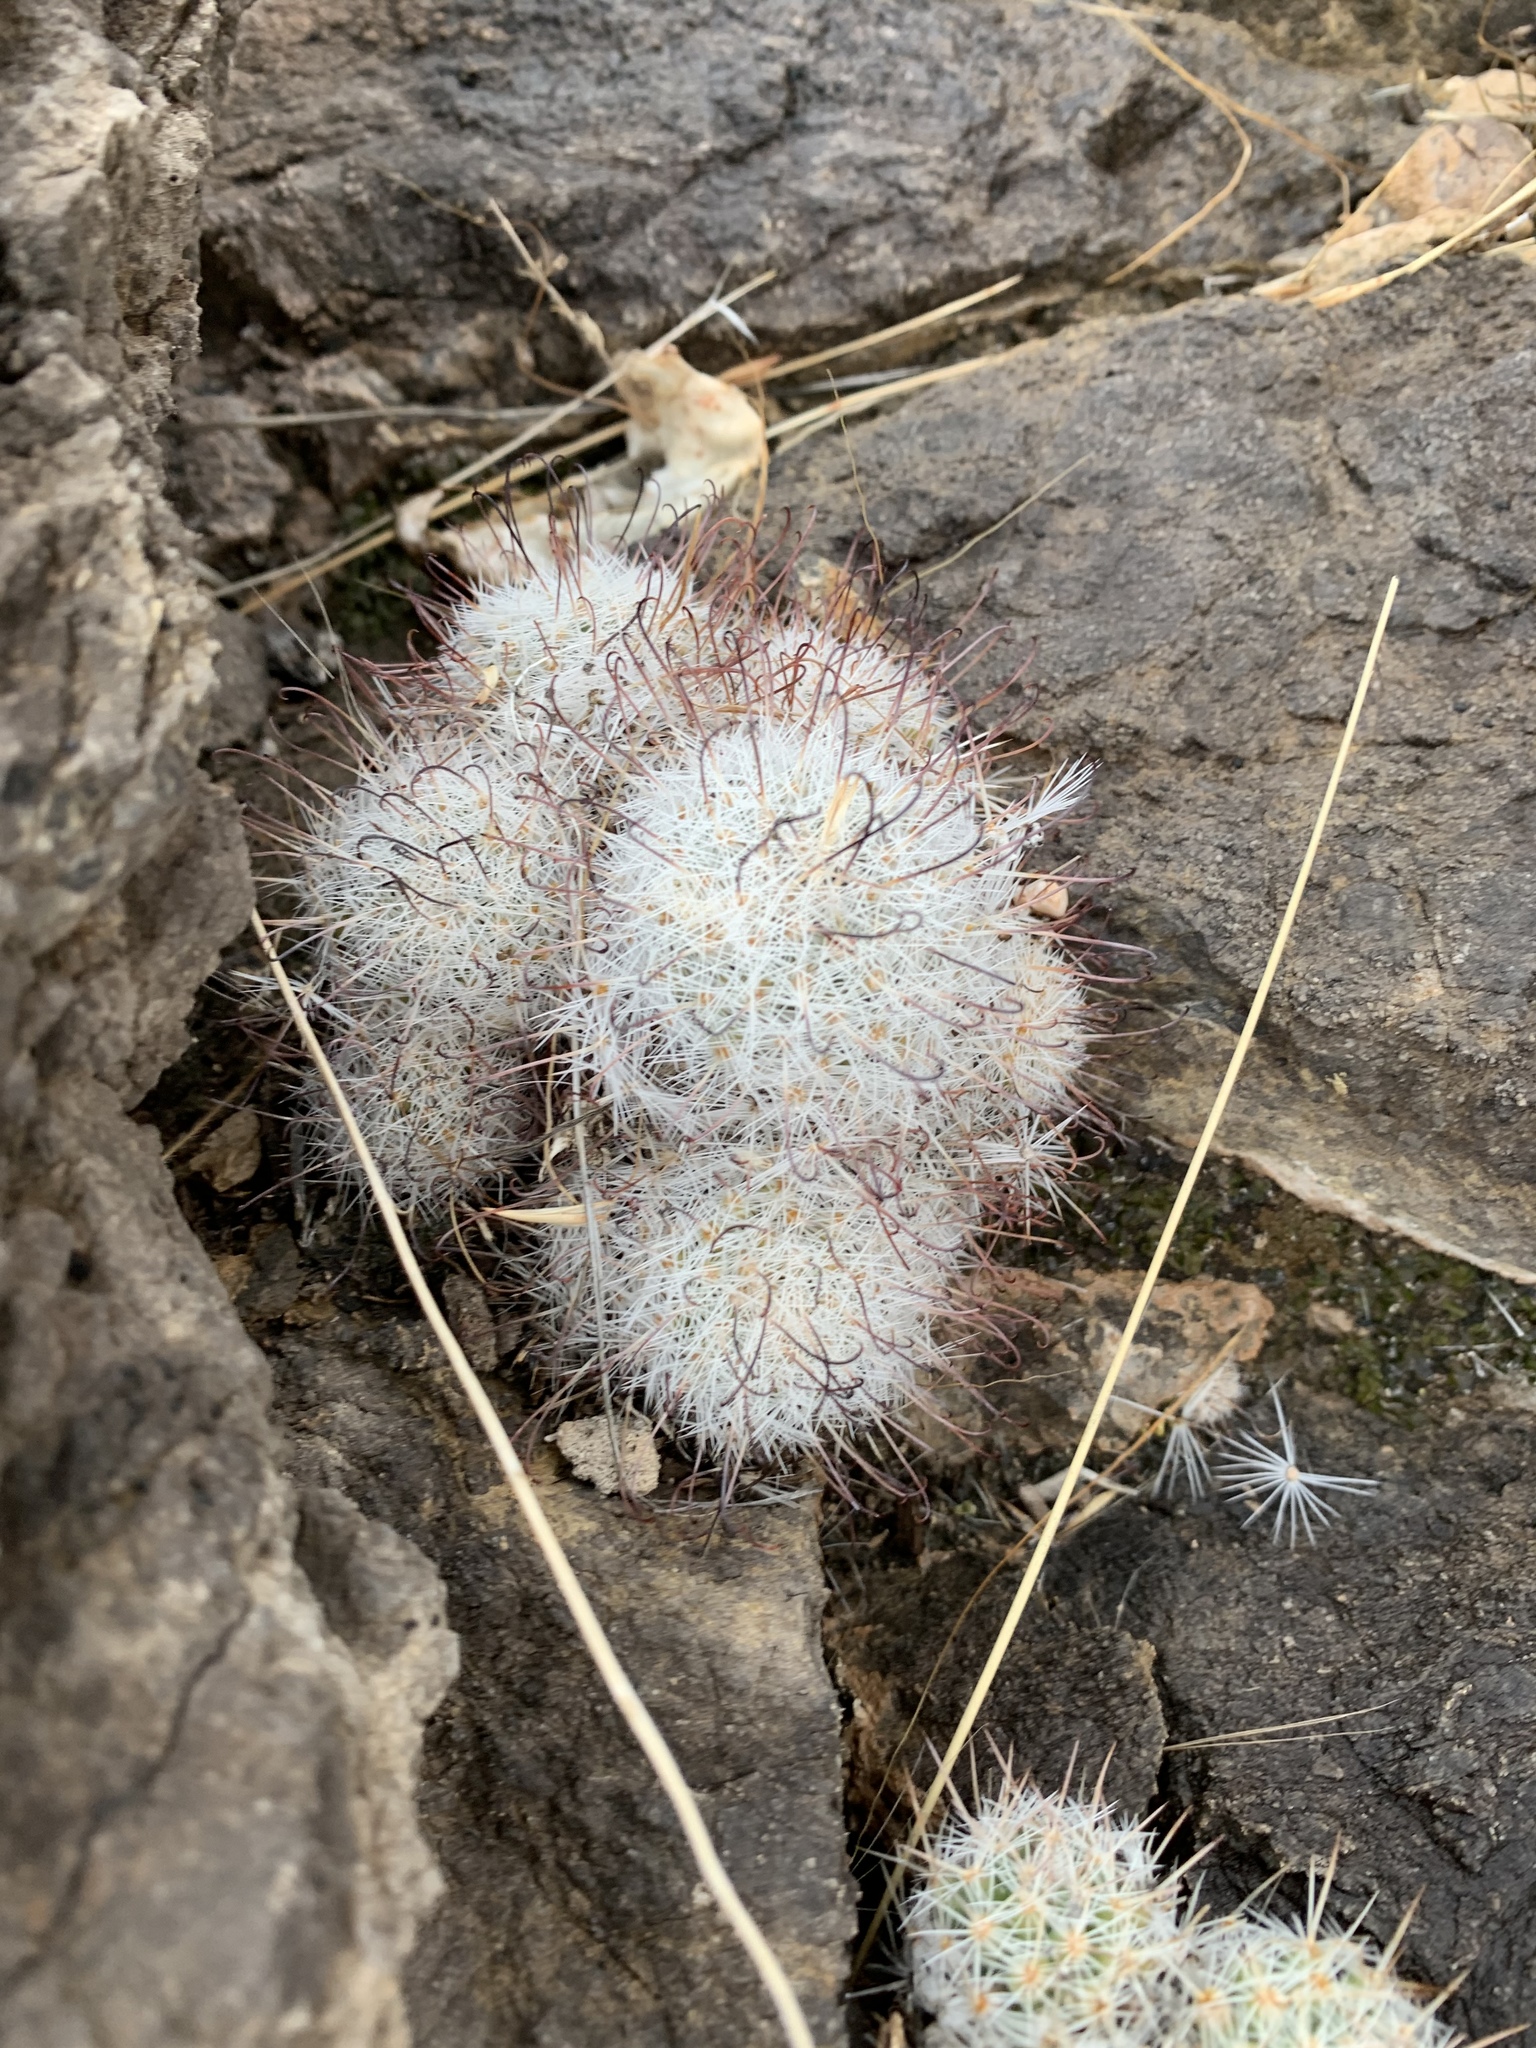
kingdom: Plantae
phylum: Tracheophyta
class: Magnoliopsida
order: Caryophyllales
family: Cactaceae
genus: Cochemiea
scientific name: Cochemiea grahamii
